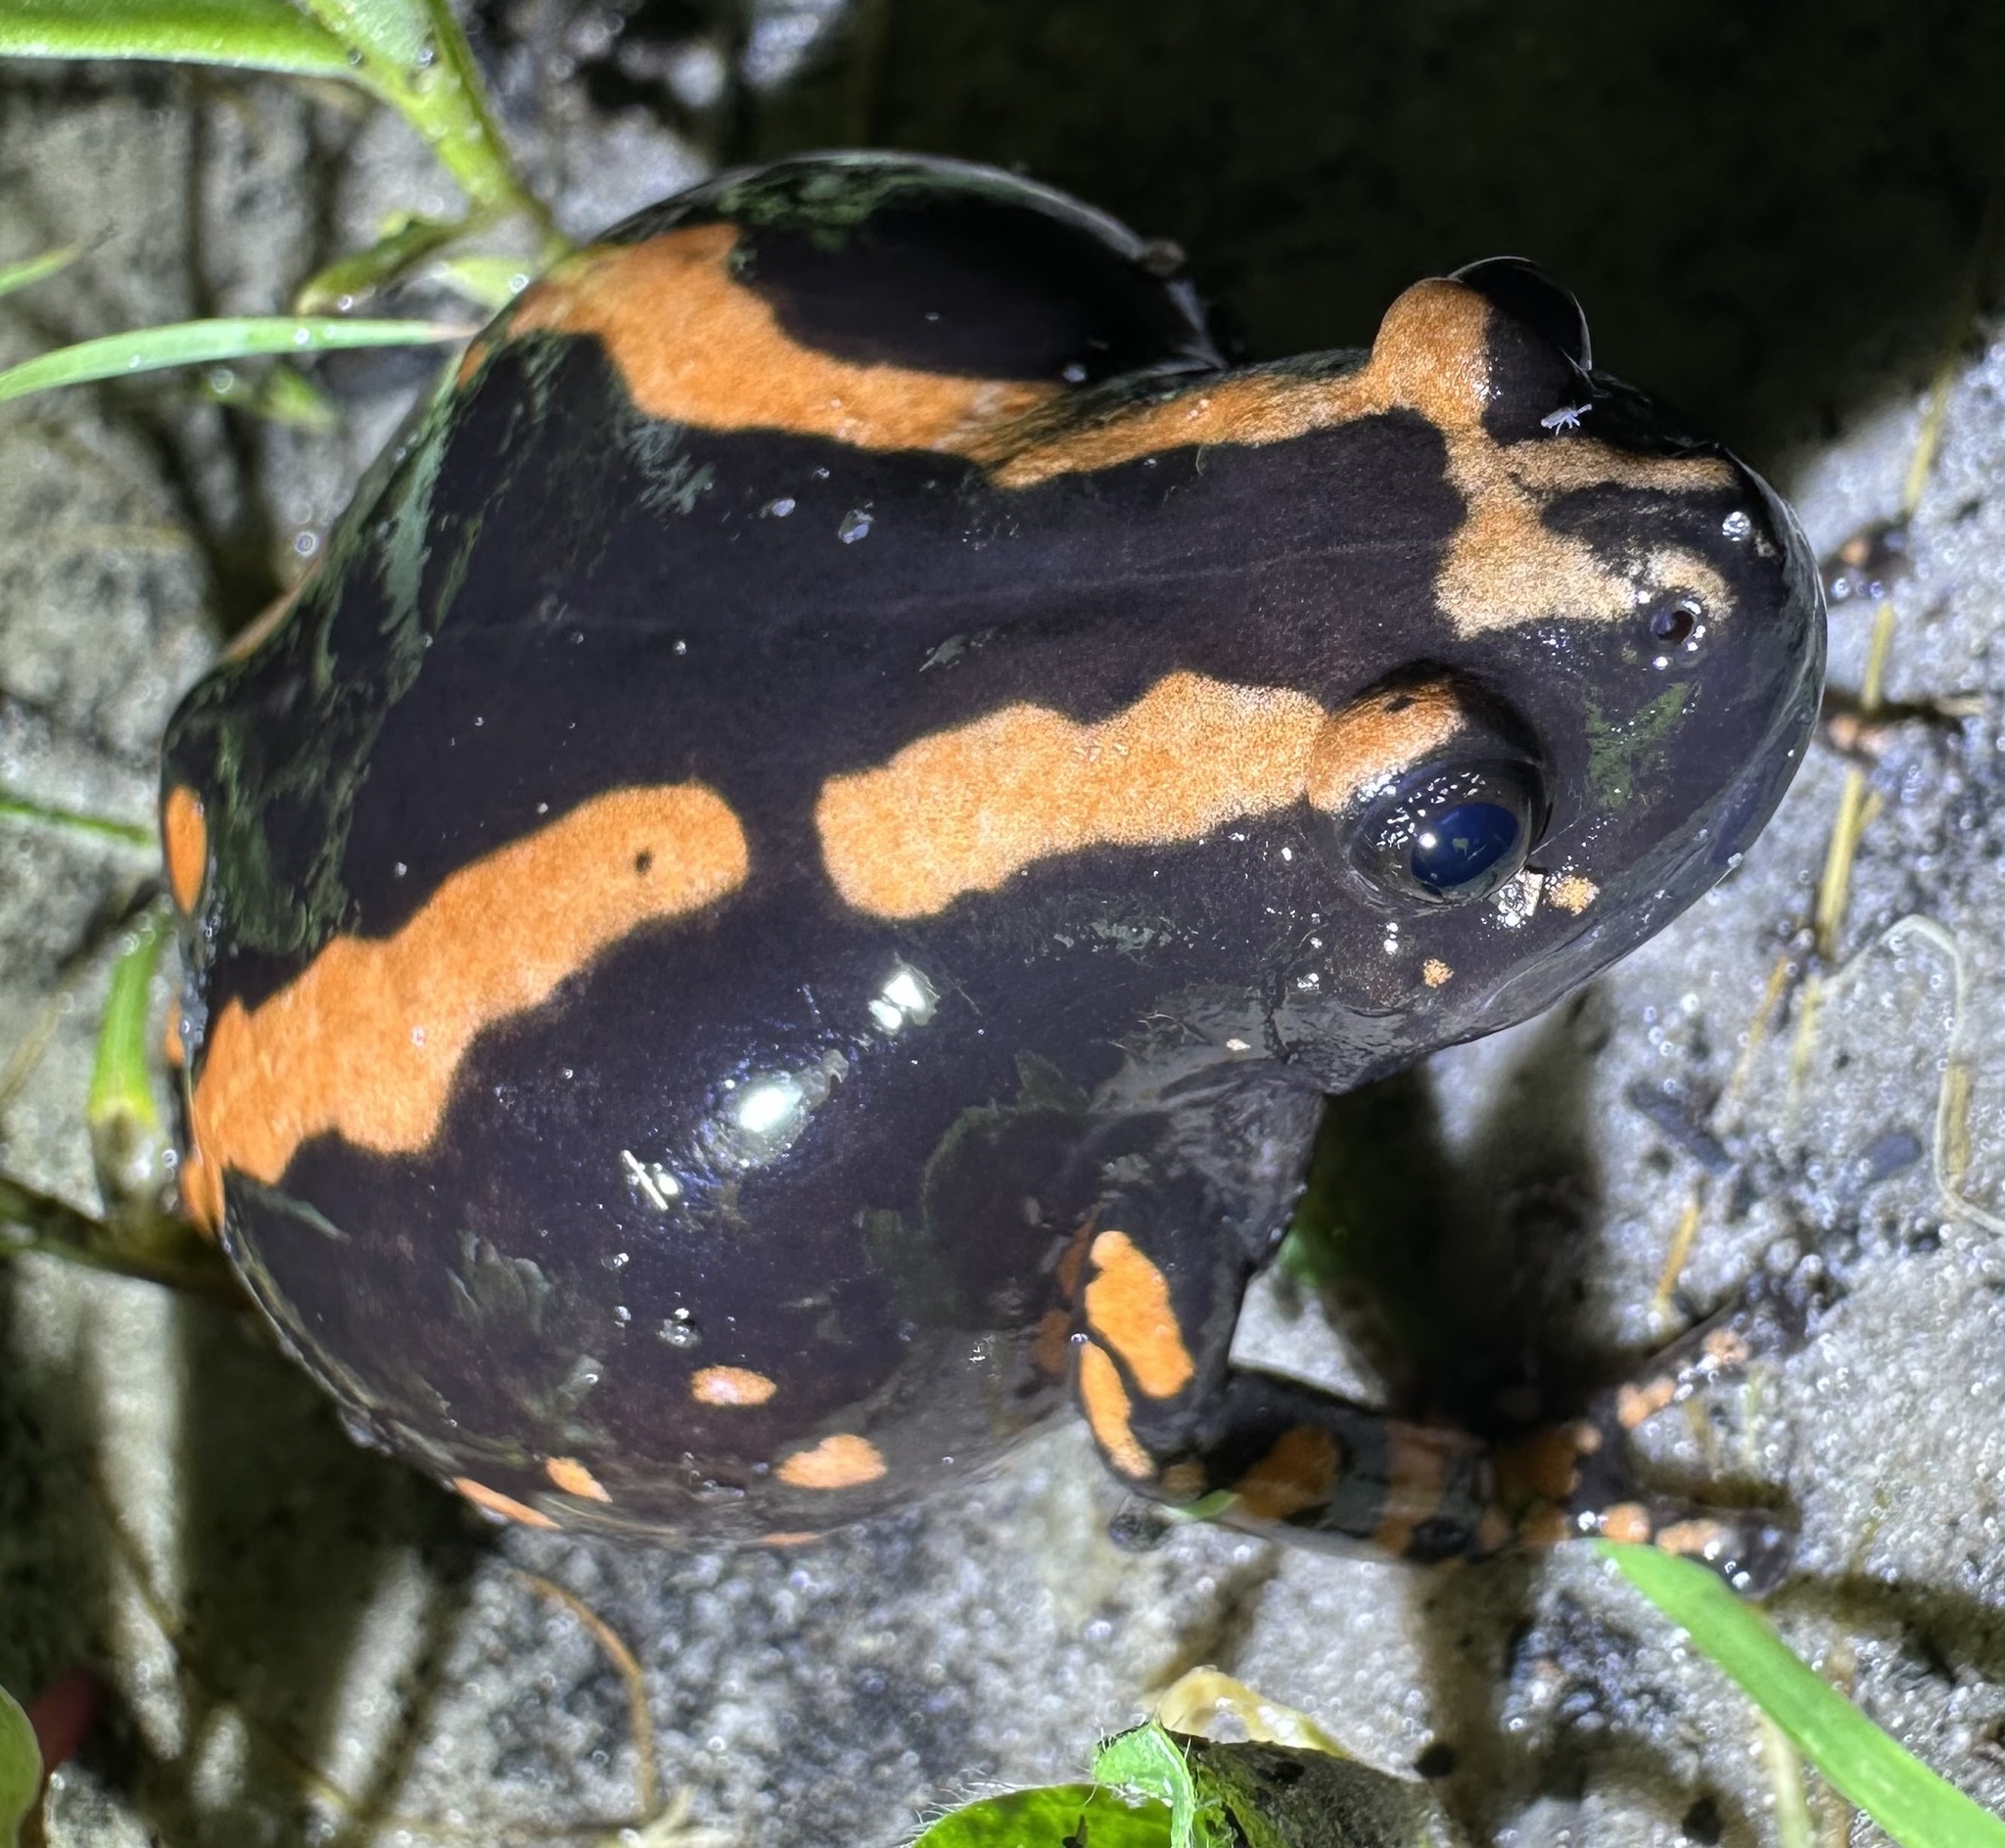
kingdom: Animalia
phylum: Chordata
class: Amphibia
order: Anura
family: Microhylidae
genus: Phrynomantis
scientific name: Phrynomantis bifasciatus
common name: Banded rubber frog
